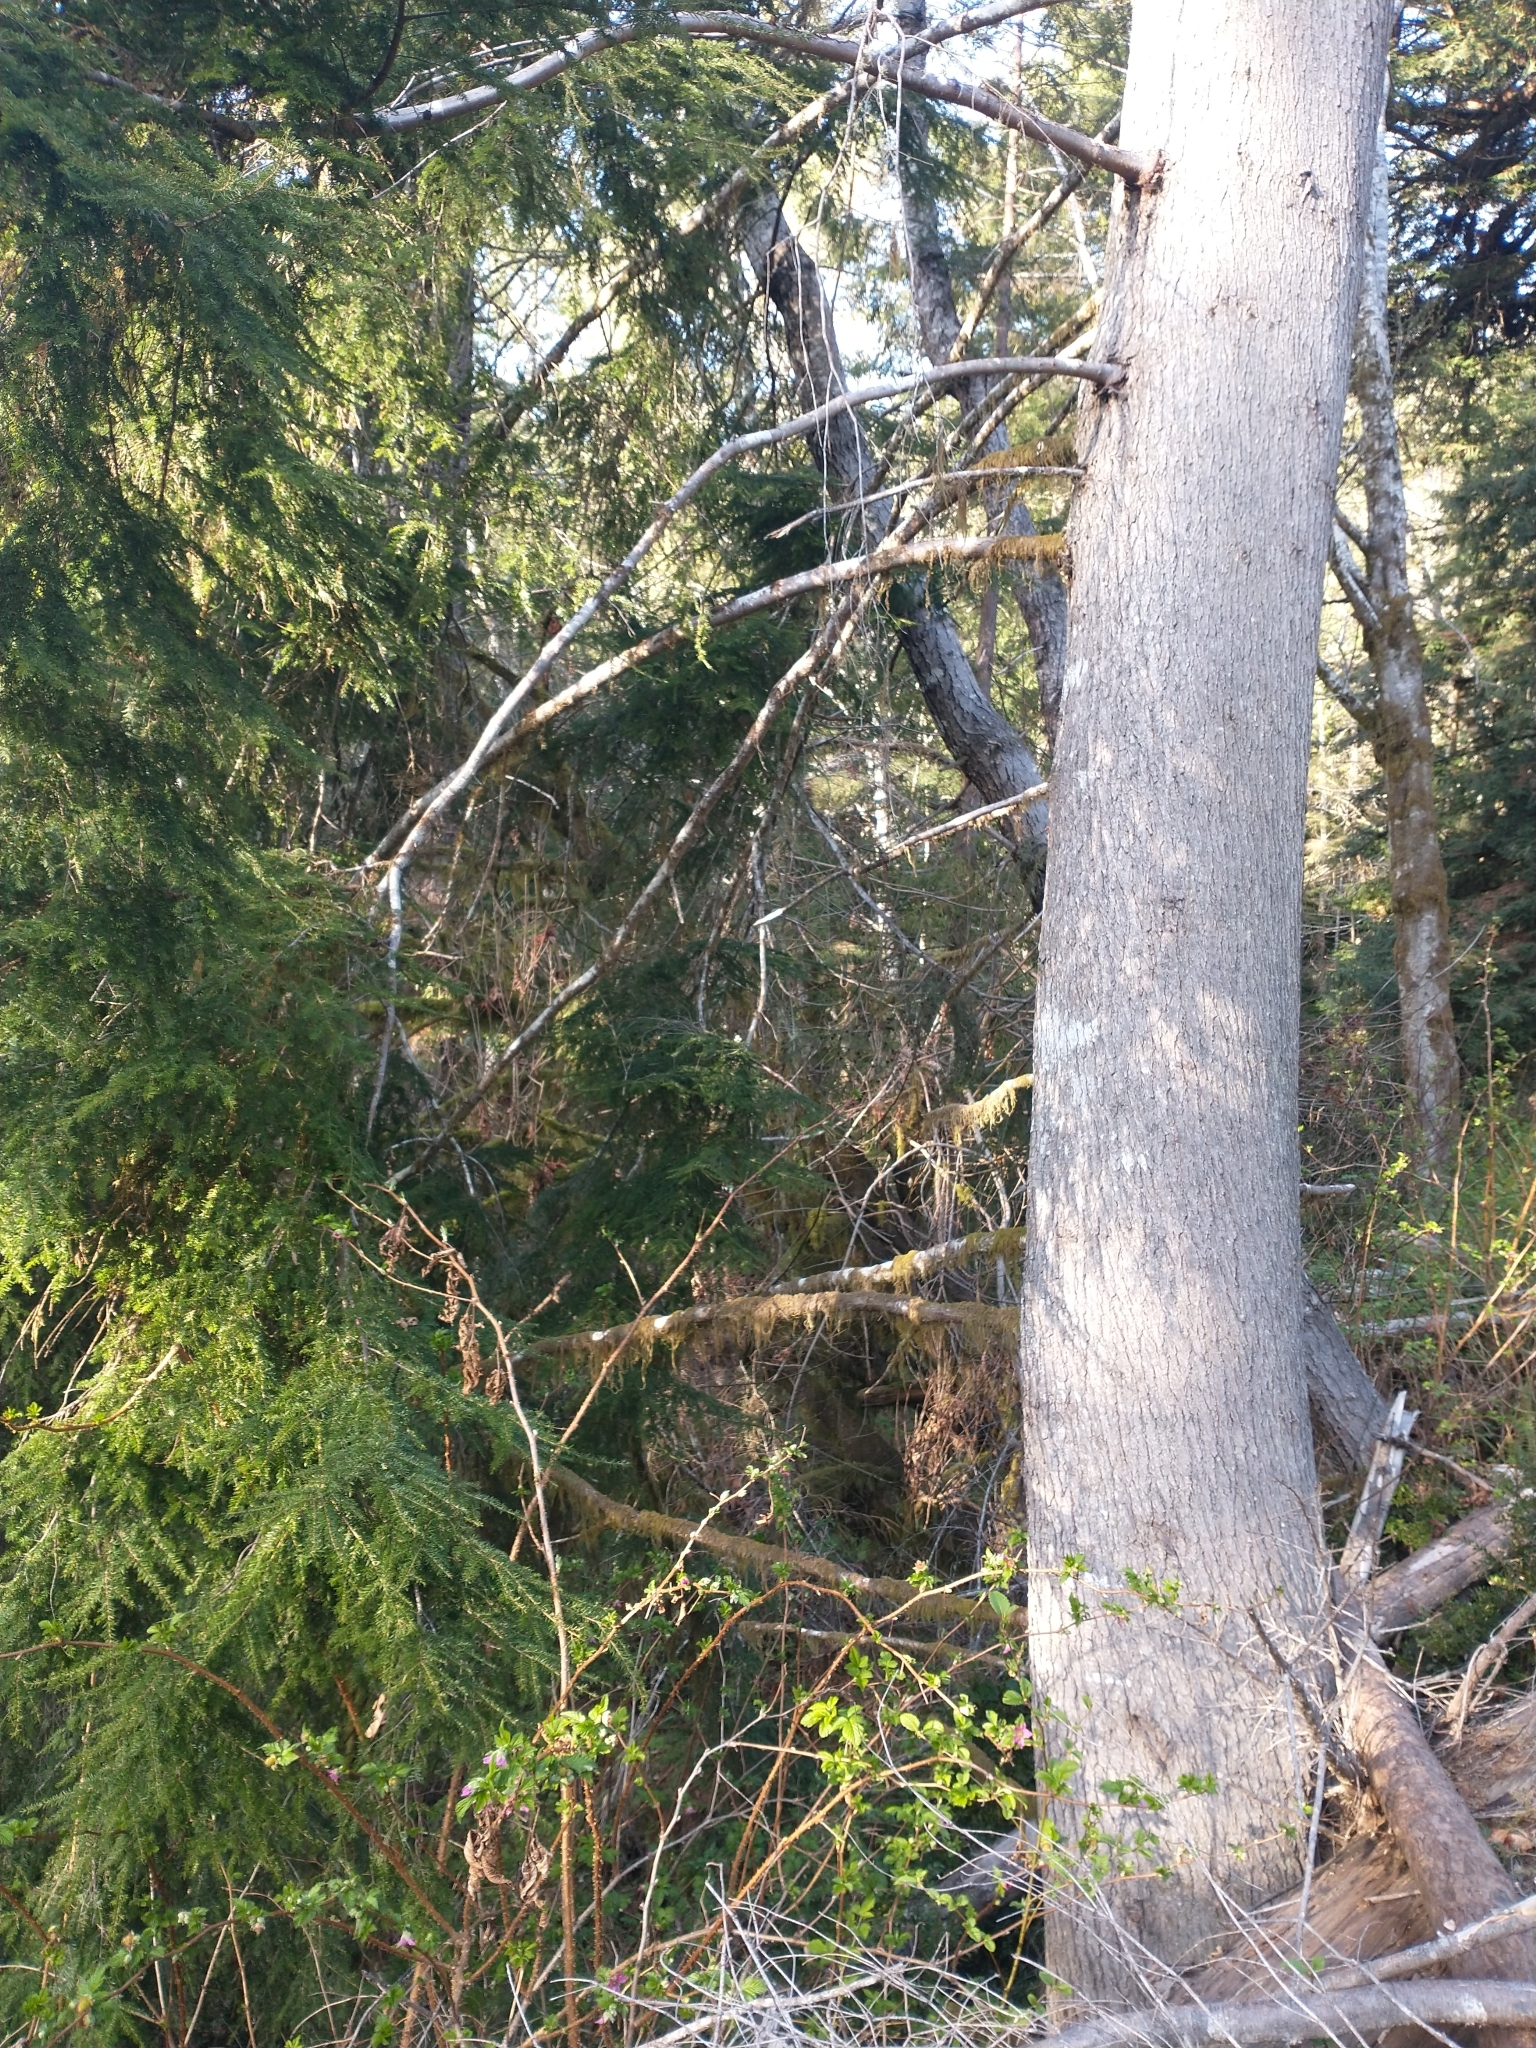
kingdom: Plantae
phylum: Tracheophyta
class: Pinopsida
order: Pinales
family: Pinaceae
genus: Tsuga
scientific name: Tsuga heterophylla
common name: Western hemlock
